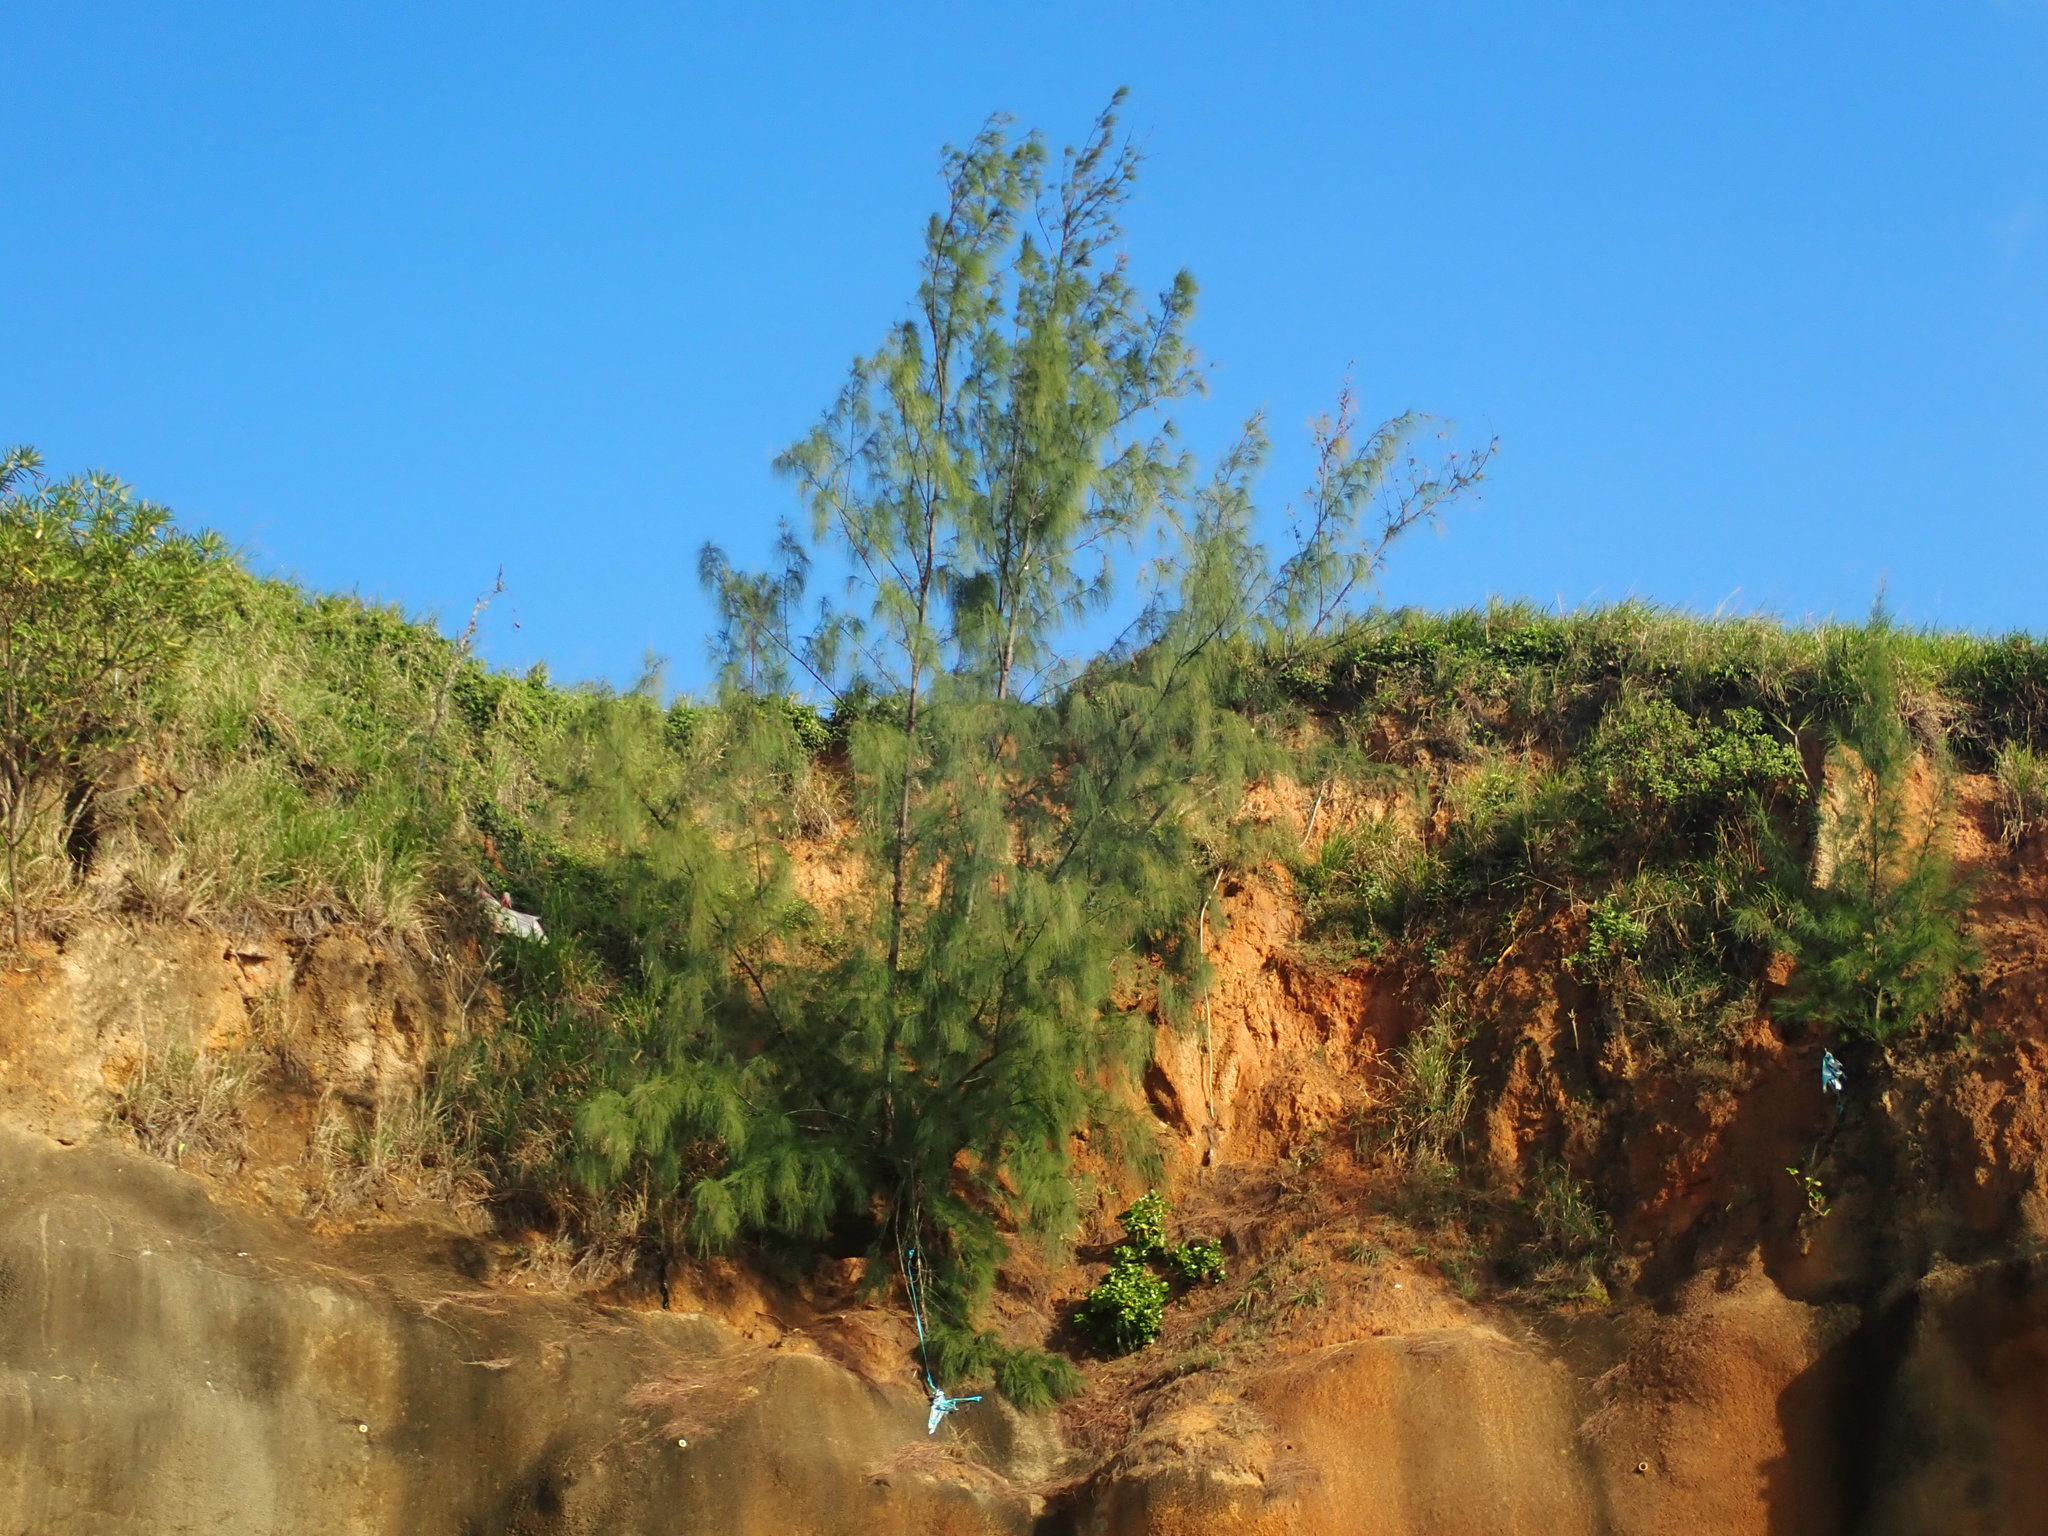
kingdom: Plantae
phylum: Tracheophyta
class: Magnoliopsida
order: Fagales
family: Casuarinaceae
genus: Casuarina
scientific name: Casuarina equisetifolia
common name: Beach sheoak
